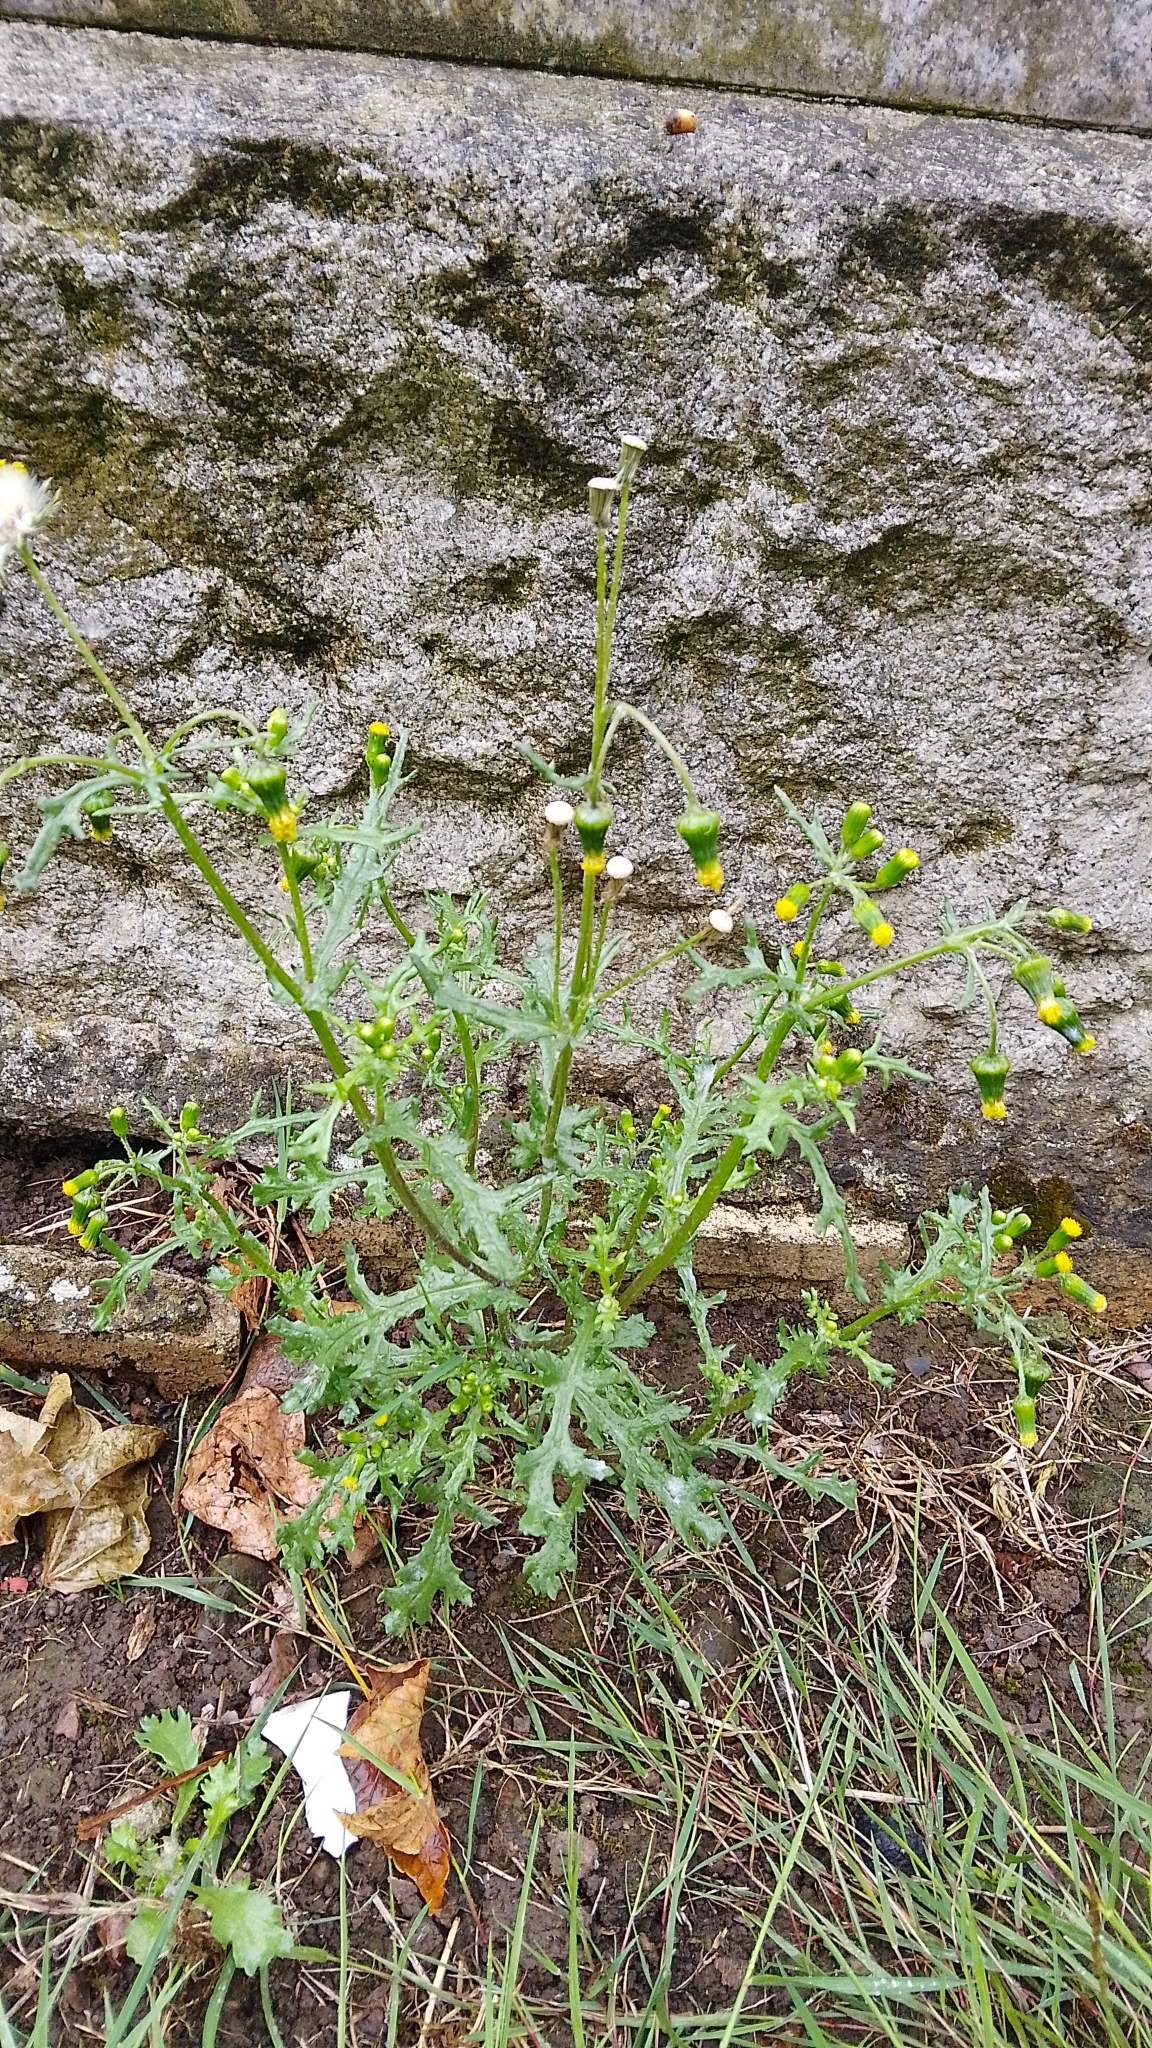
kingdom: Plantae
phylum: Tracheophyta
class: Magnoliopsida
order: Asterales
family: Asteraceae
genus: Senecio
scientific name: Senecio vulgaris
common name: Old-man-in-the-spring
